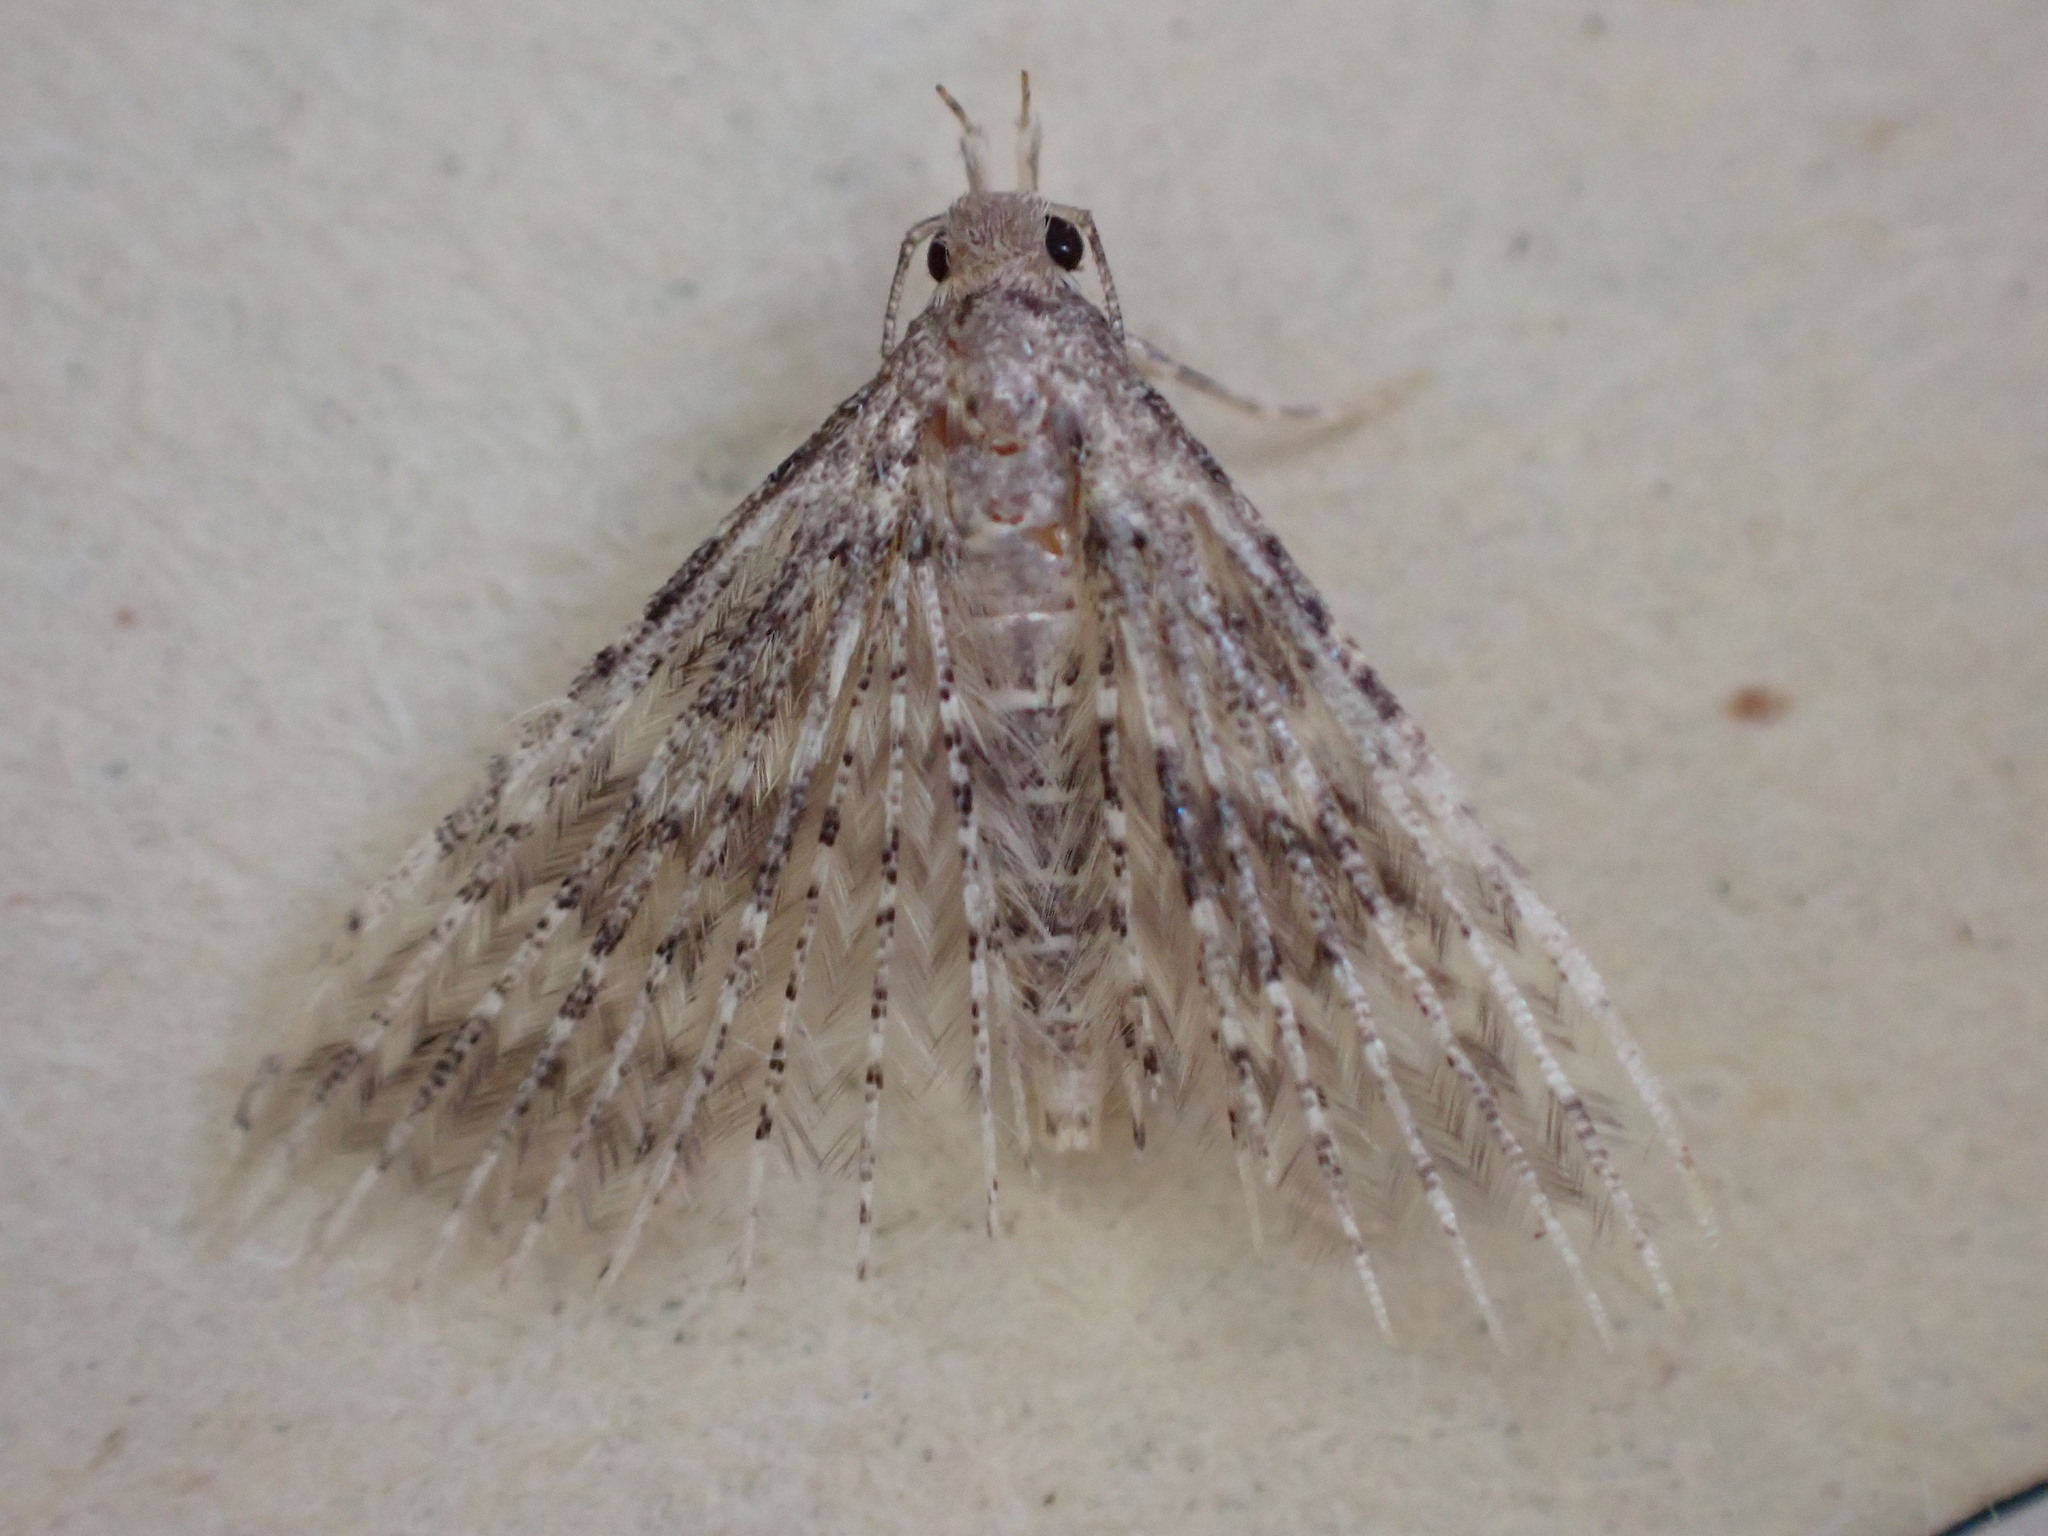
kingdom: Animalia
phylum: Arthropoda
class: Insecta
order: Lepidoptera
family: Alucitidae
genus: Alucita
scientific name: Alucita hexadactyla
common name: Twenty-plume moth
